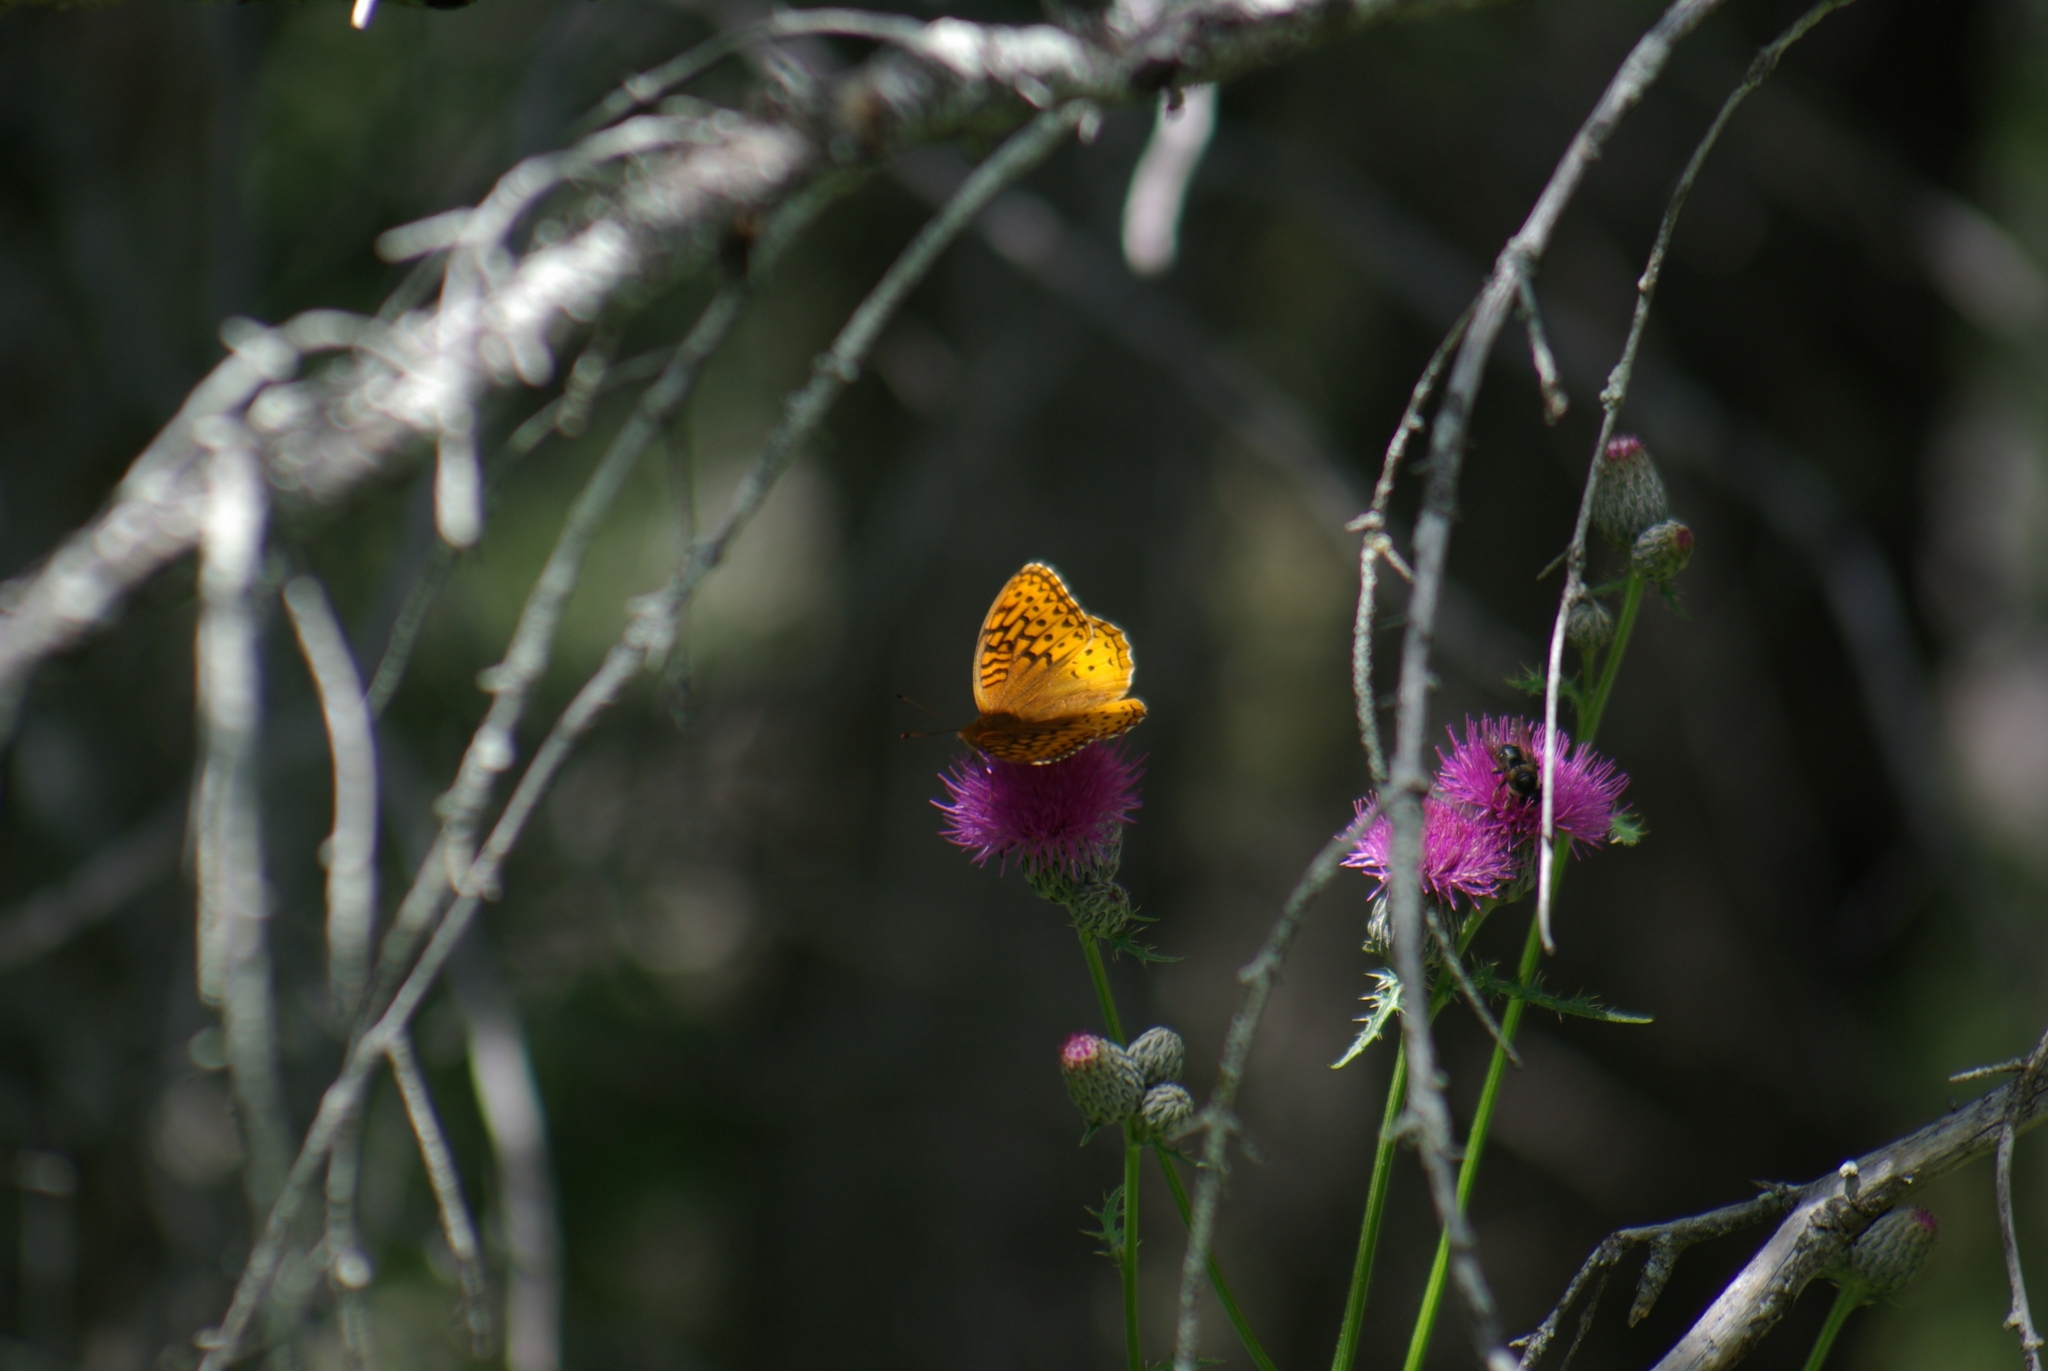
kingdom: Plantae
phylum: Tracheophyta
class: Magnoliopsida
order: Asterales
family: Asteraceae
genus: Cirsium
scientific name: Cirsium muticum
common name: Dunce-nettle
